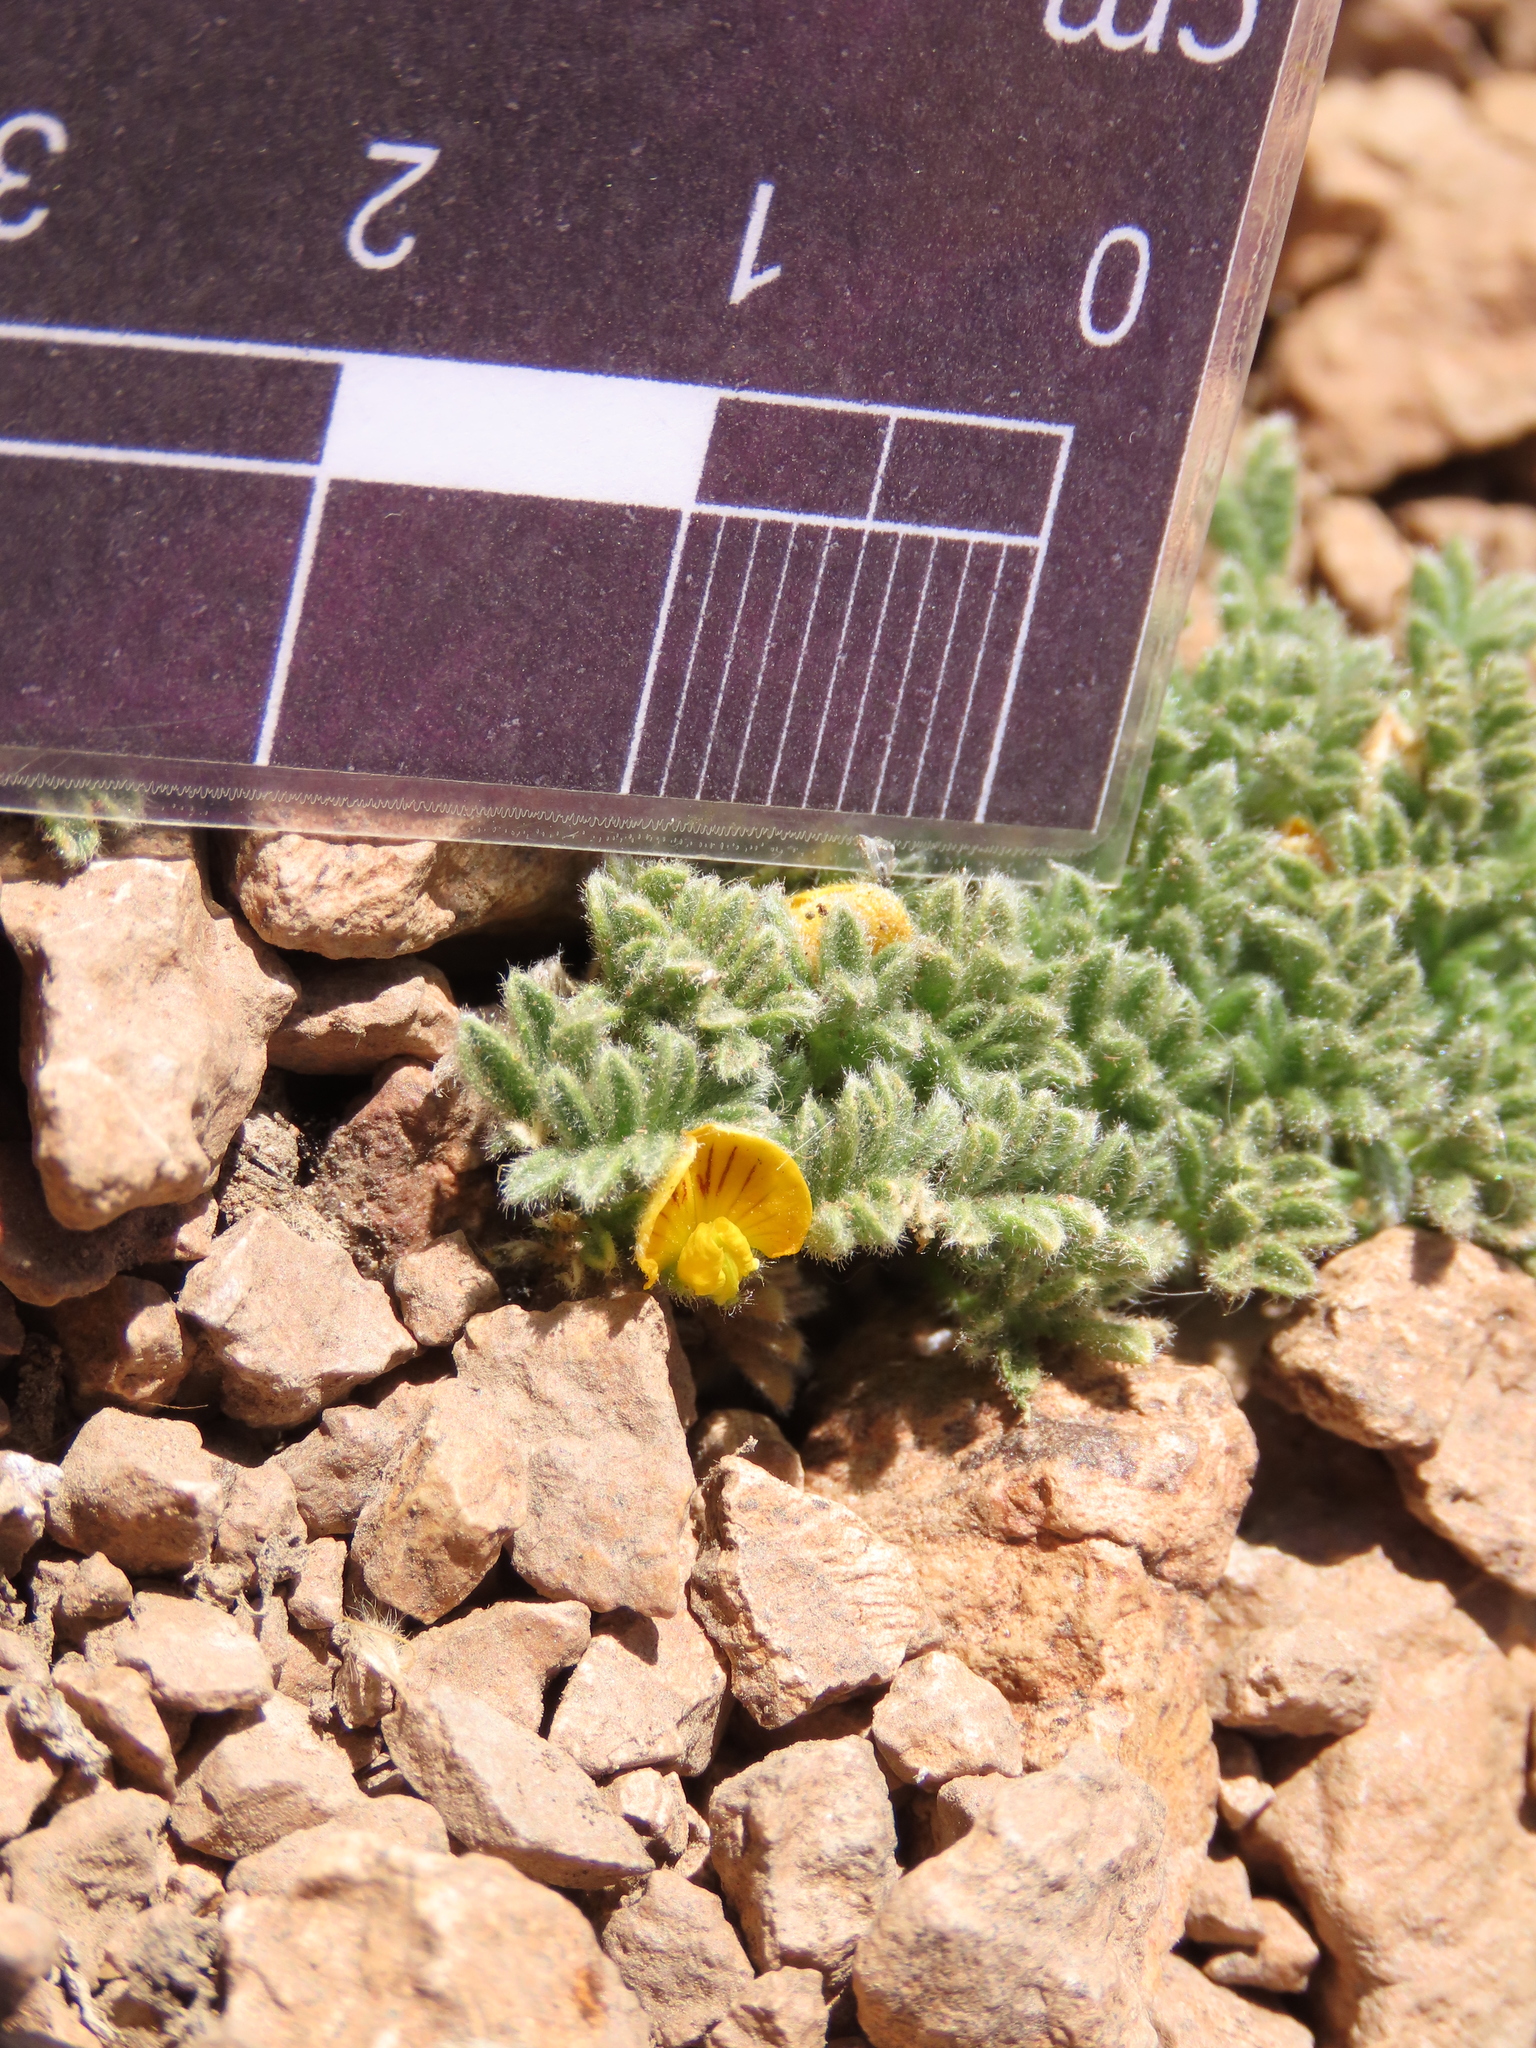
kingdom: Plantae
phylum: Tracheophyta
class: Magnoliopsida
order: Fabales
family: Fabaceae
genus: Adesmia
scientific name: Adesmia glomerula
